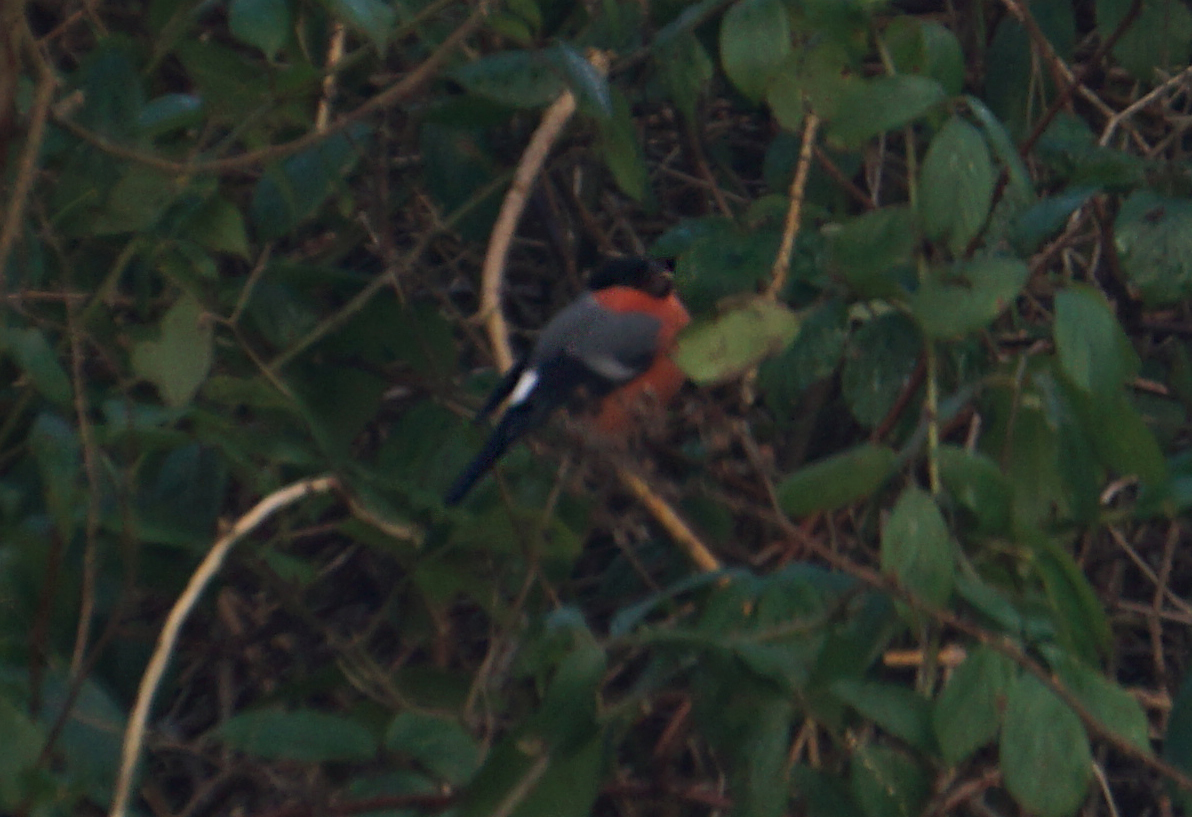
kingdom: Animalia
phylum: Chordata
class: Aves
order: Passeriformes
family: Fringillidae
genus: Pyrrhula
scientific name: Pyrrhula pyrrhula
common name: Eurasian bullfinch
